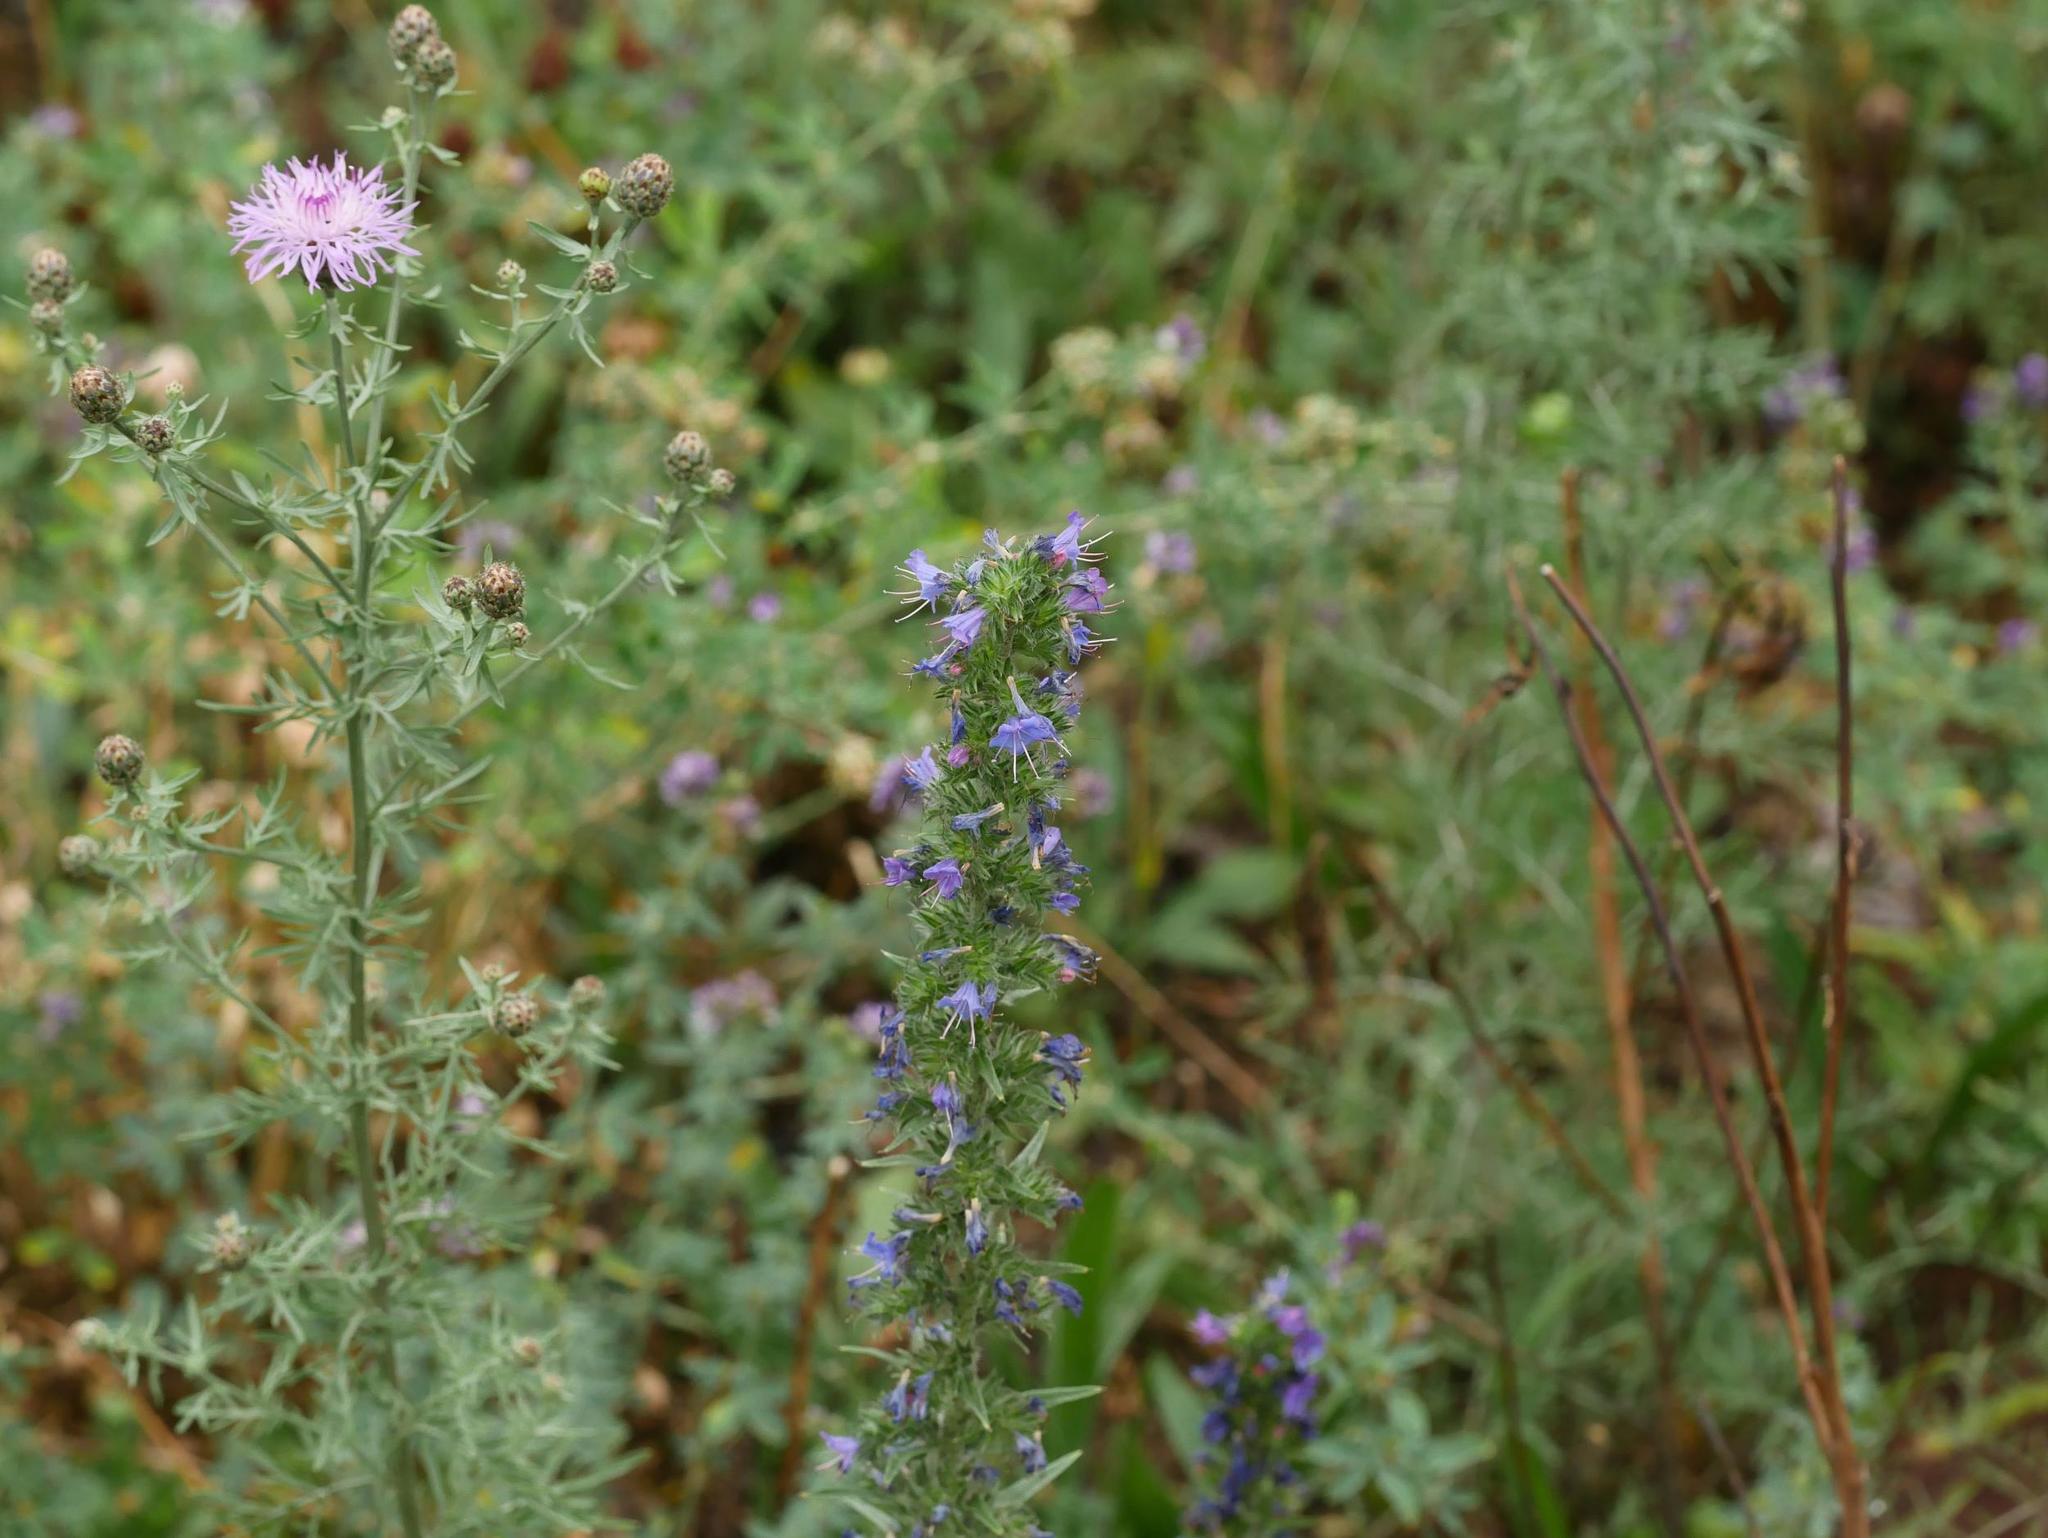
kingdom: Plantae
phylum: Tracheophyta
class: Magnoliopsida
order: Boraginales
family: Boraginaceae
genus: Echium
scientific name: Echium vulgare
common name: Common viper's bugloss
